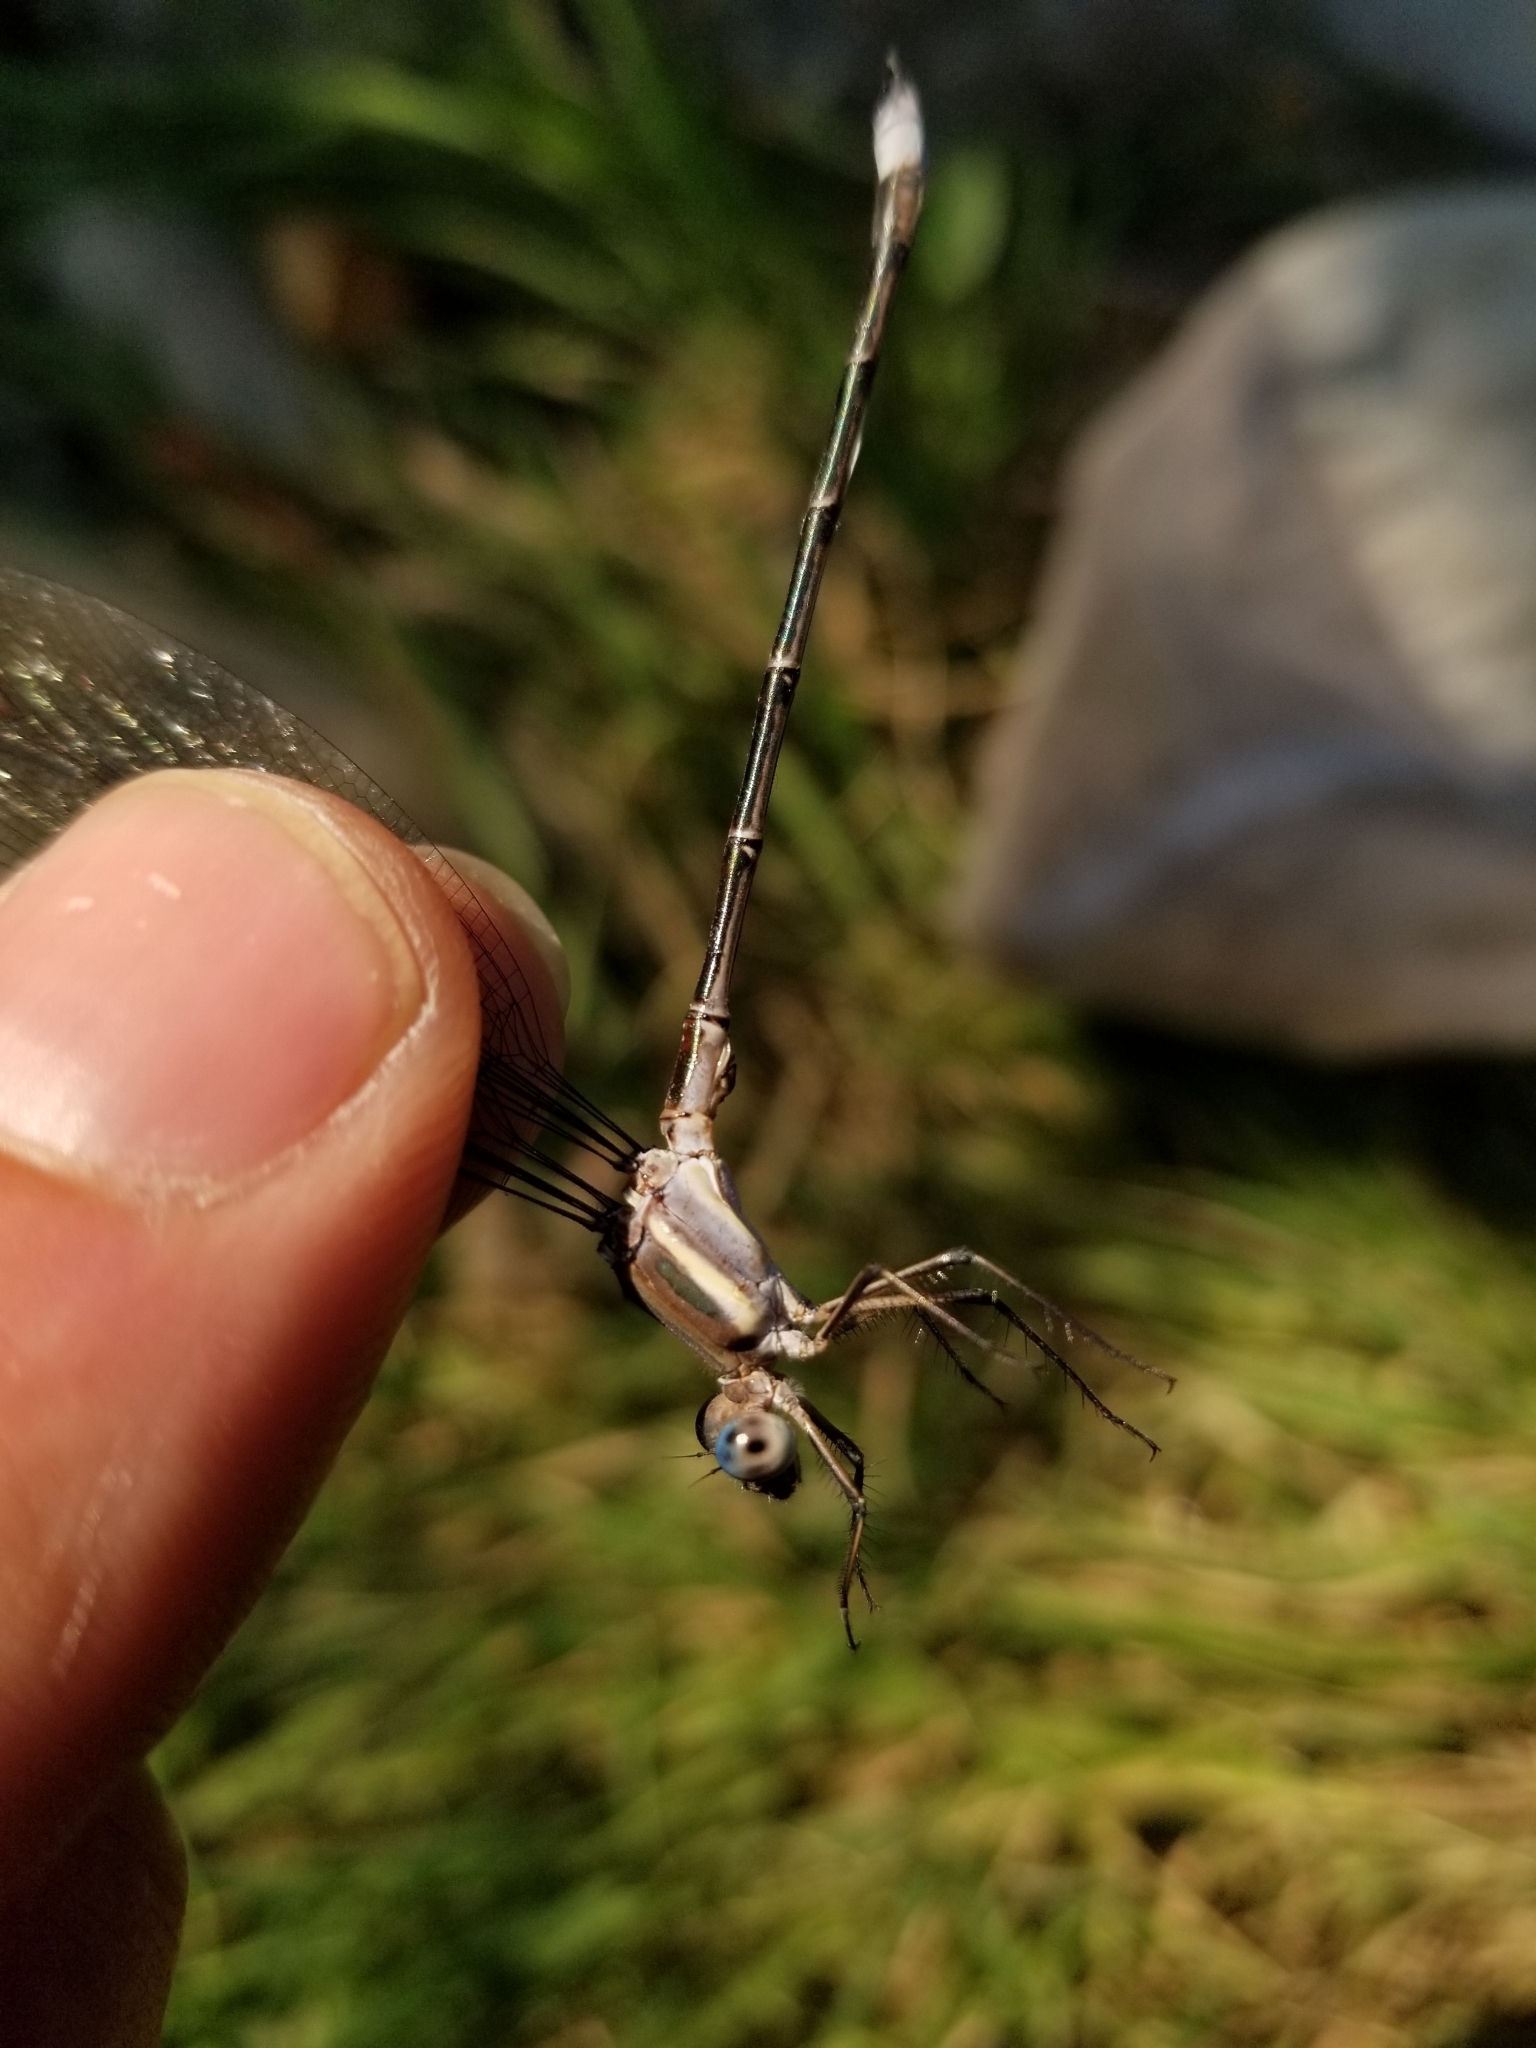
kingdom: Animalia
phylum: Arthropoda
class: Insecta
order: Odonata
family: Lestidae
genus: Archilestes
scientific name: Archilestes grandis
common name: Great spreadwing
